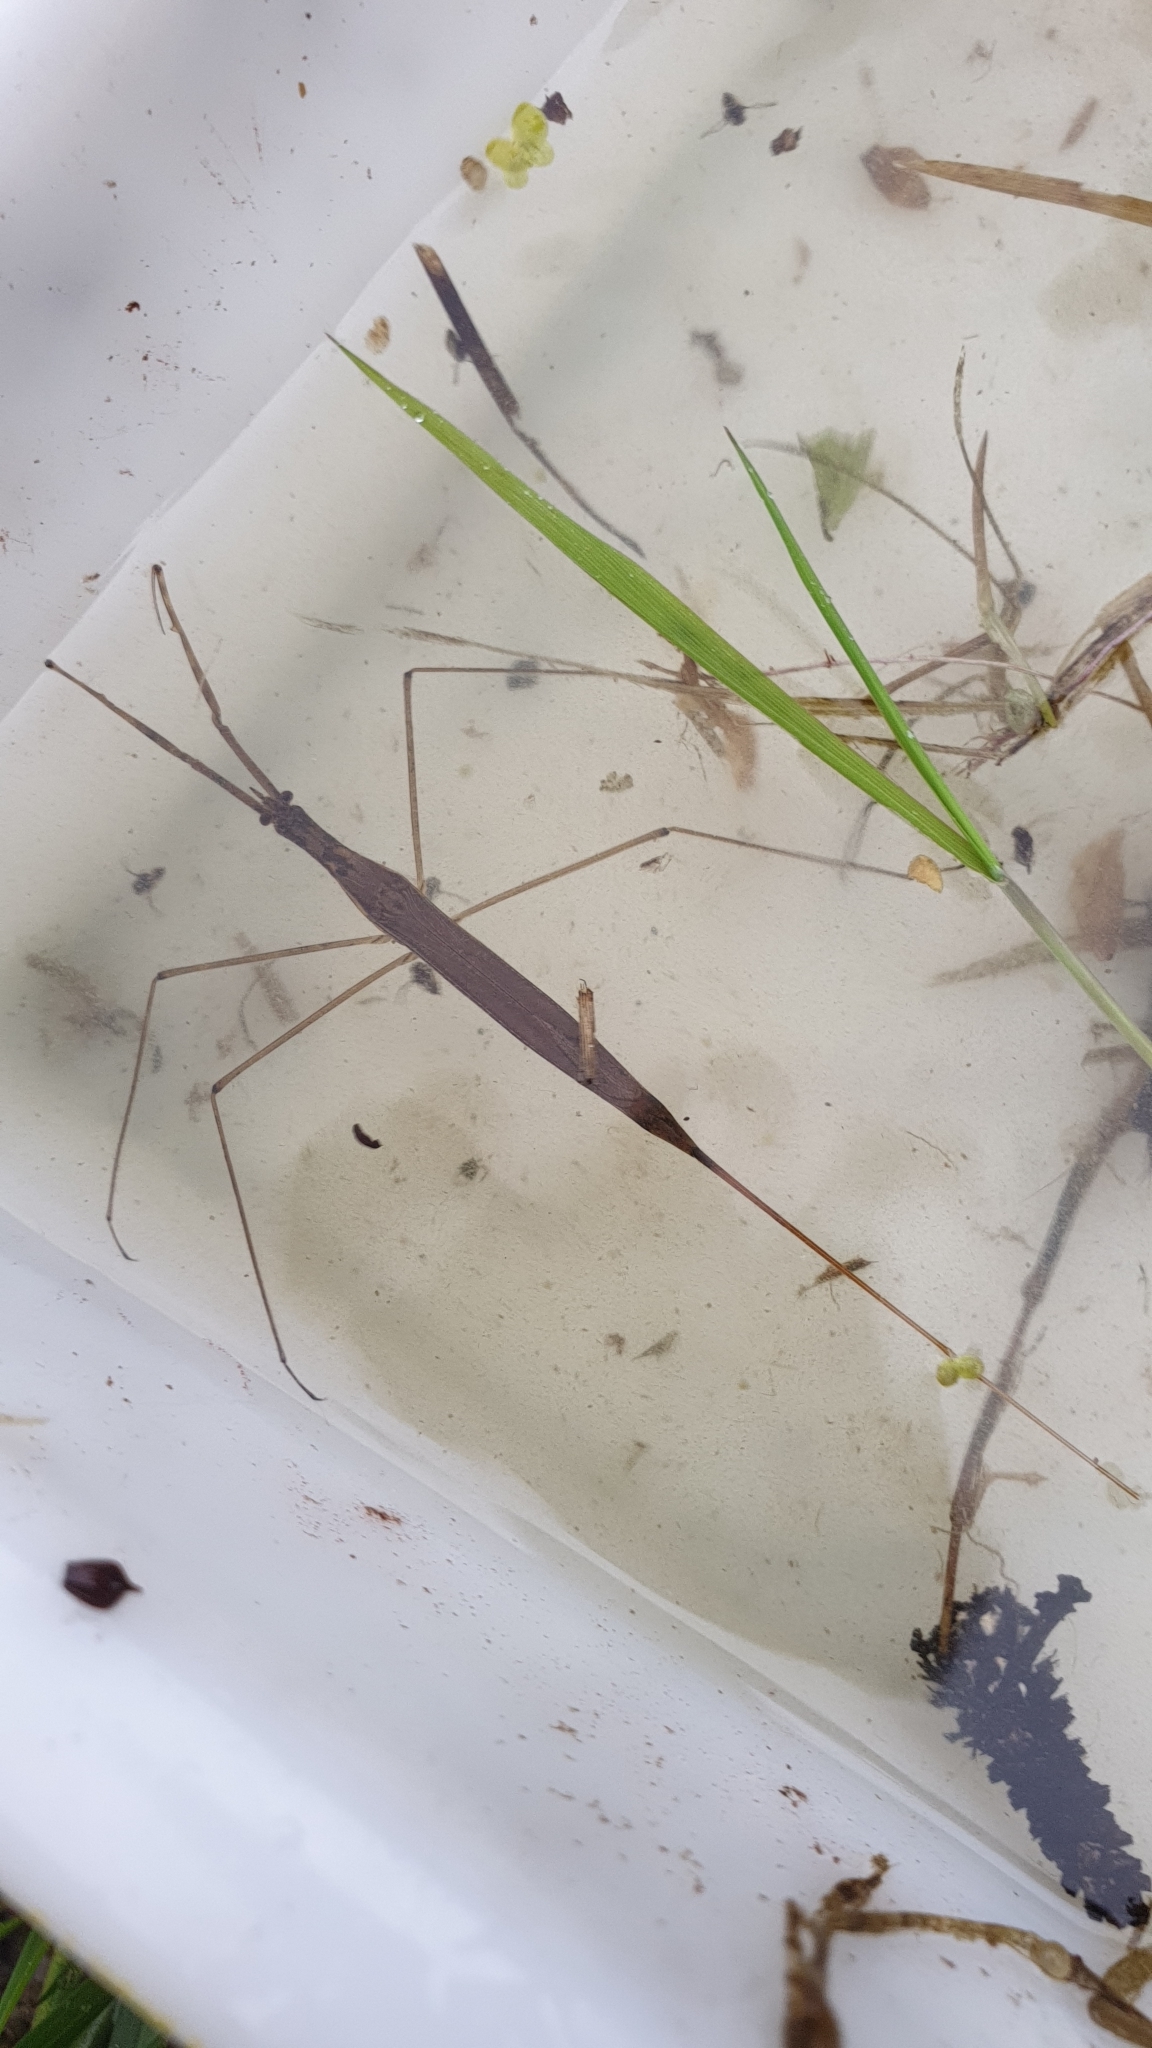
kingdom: Animalia
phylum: Arthropoda
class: Insecta
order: Hemiptera
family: Nepidae
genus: Ranatra
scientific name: Ranatra linearis
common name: Water stick insect
